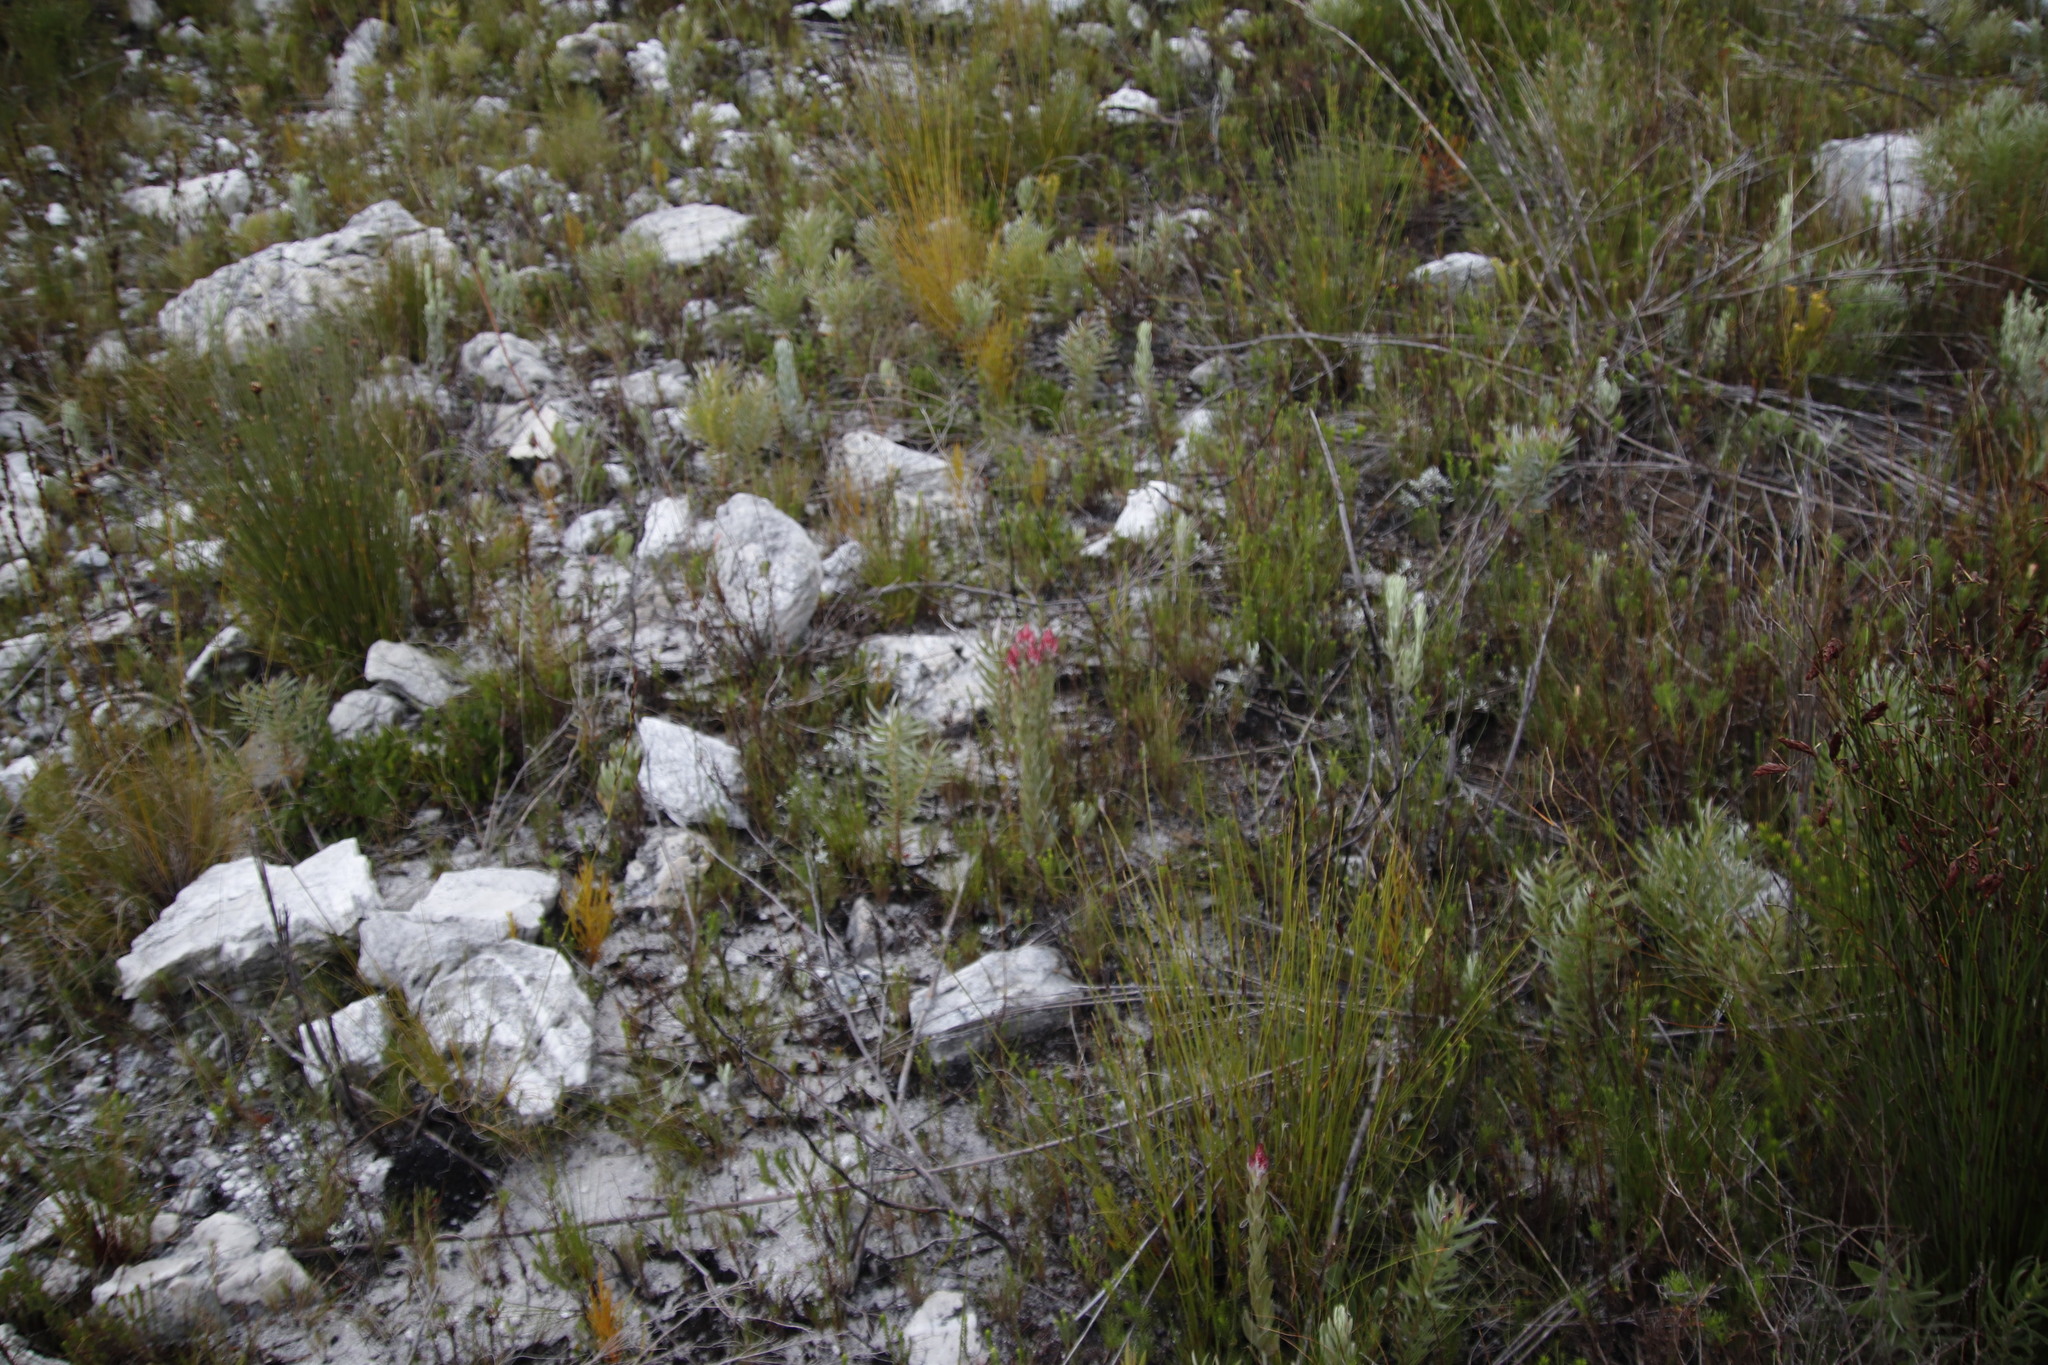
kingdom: Plantae
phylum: Tracheophyta
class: Magnoliopsida
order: Asterales
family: Asteraceae
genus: Syncarpha
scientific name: Syncarpha zeyheri
